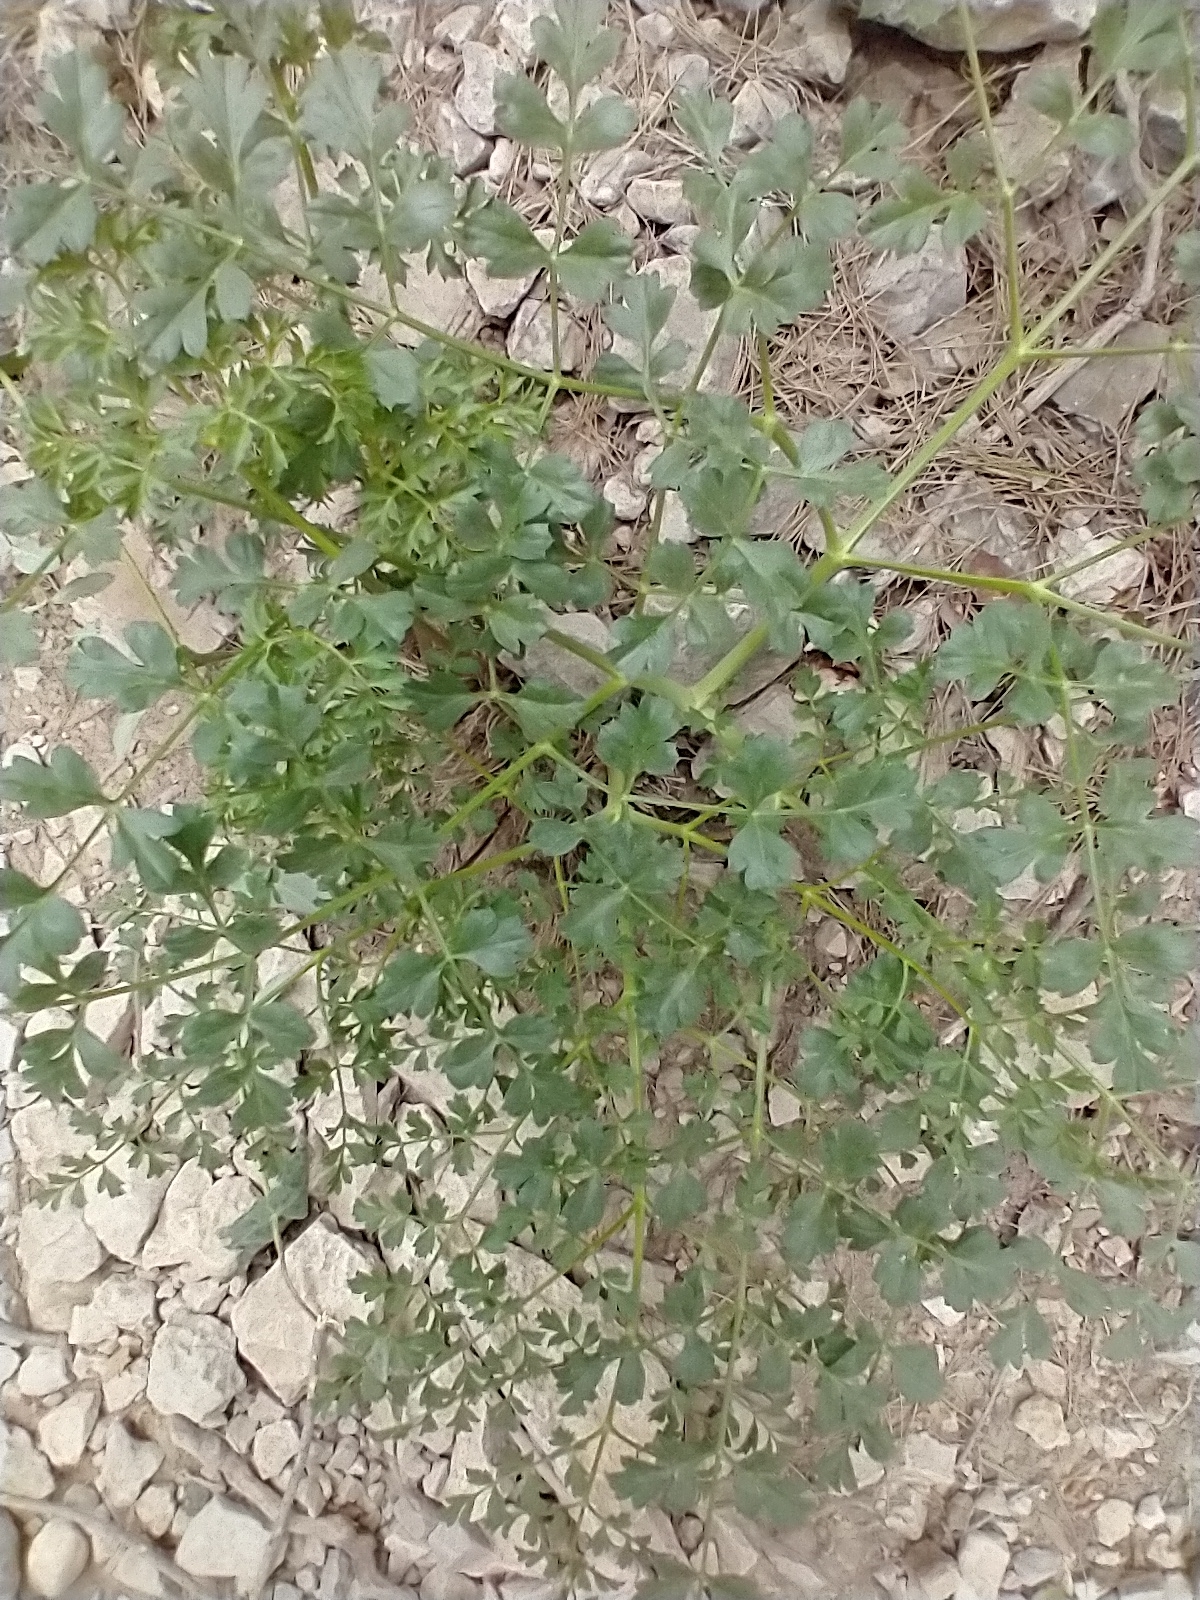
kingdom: Plantae
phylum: Tracheophyta
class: Magnoliopsida
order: Apiales
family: Apiaceae
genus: Laserpitium
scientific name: Laserpitium gallicum
